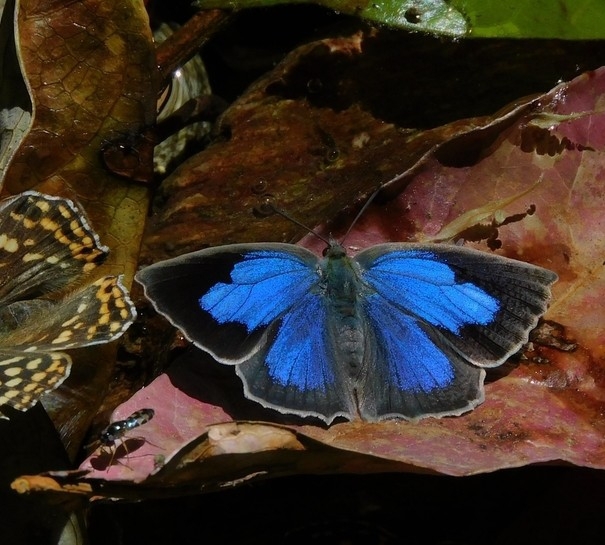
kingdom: Animalia
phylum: Arthropoda
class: Insecta
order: Lepidoptera
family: Lycaenidae
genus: Arhopala
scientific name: Arhopala
